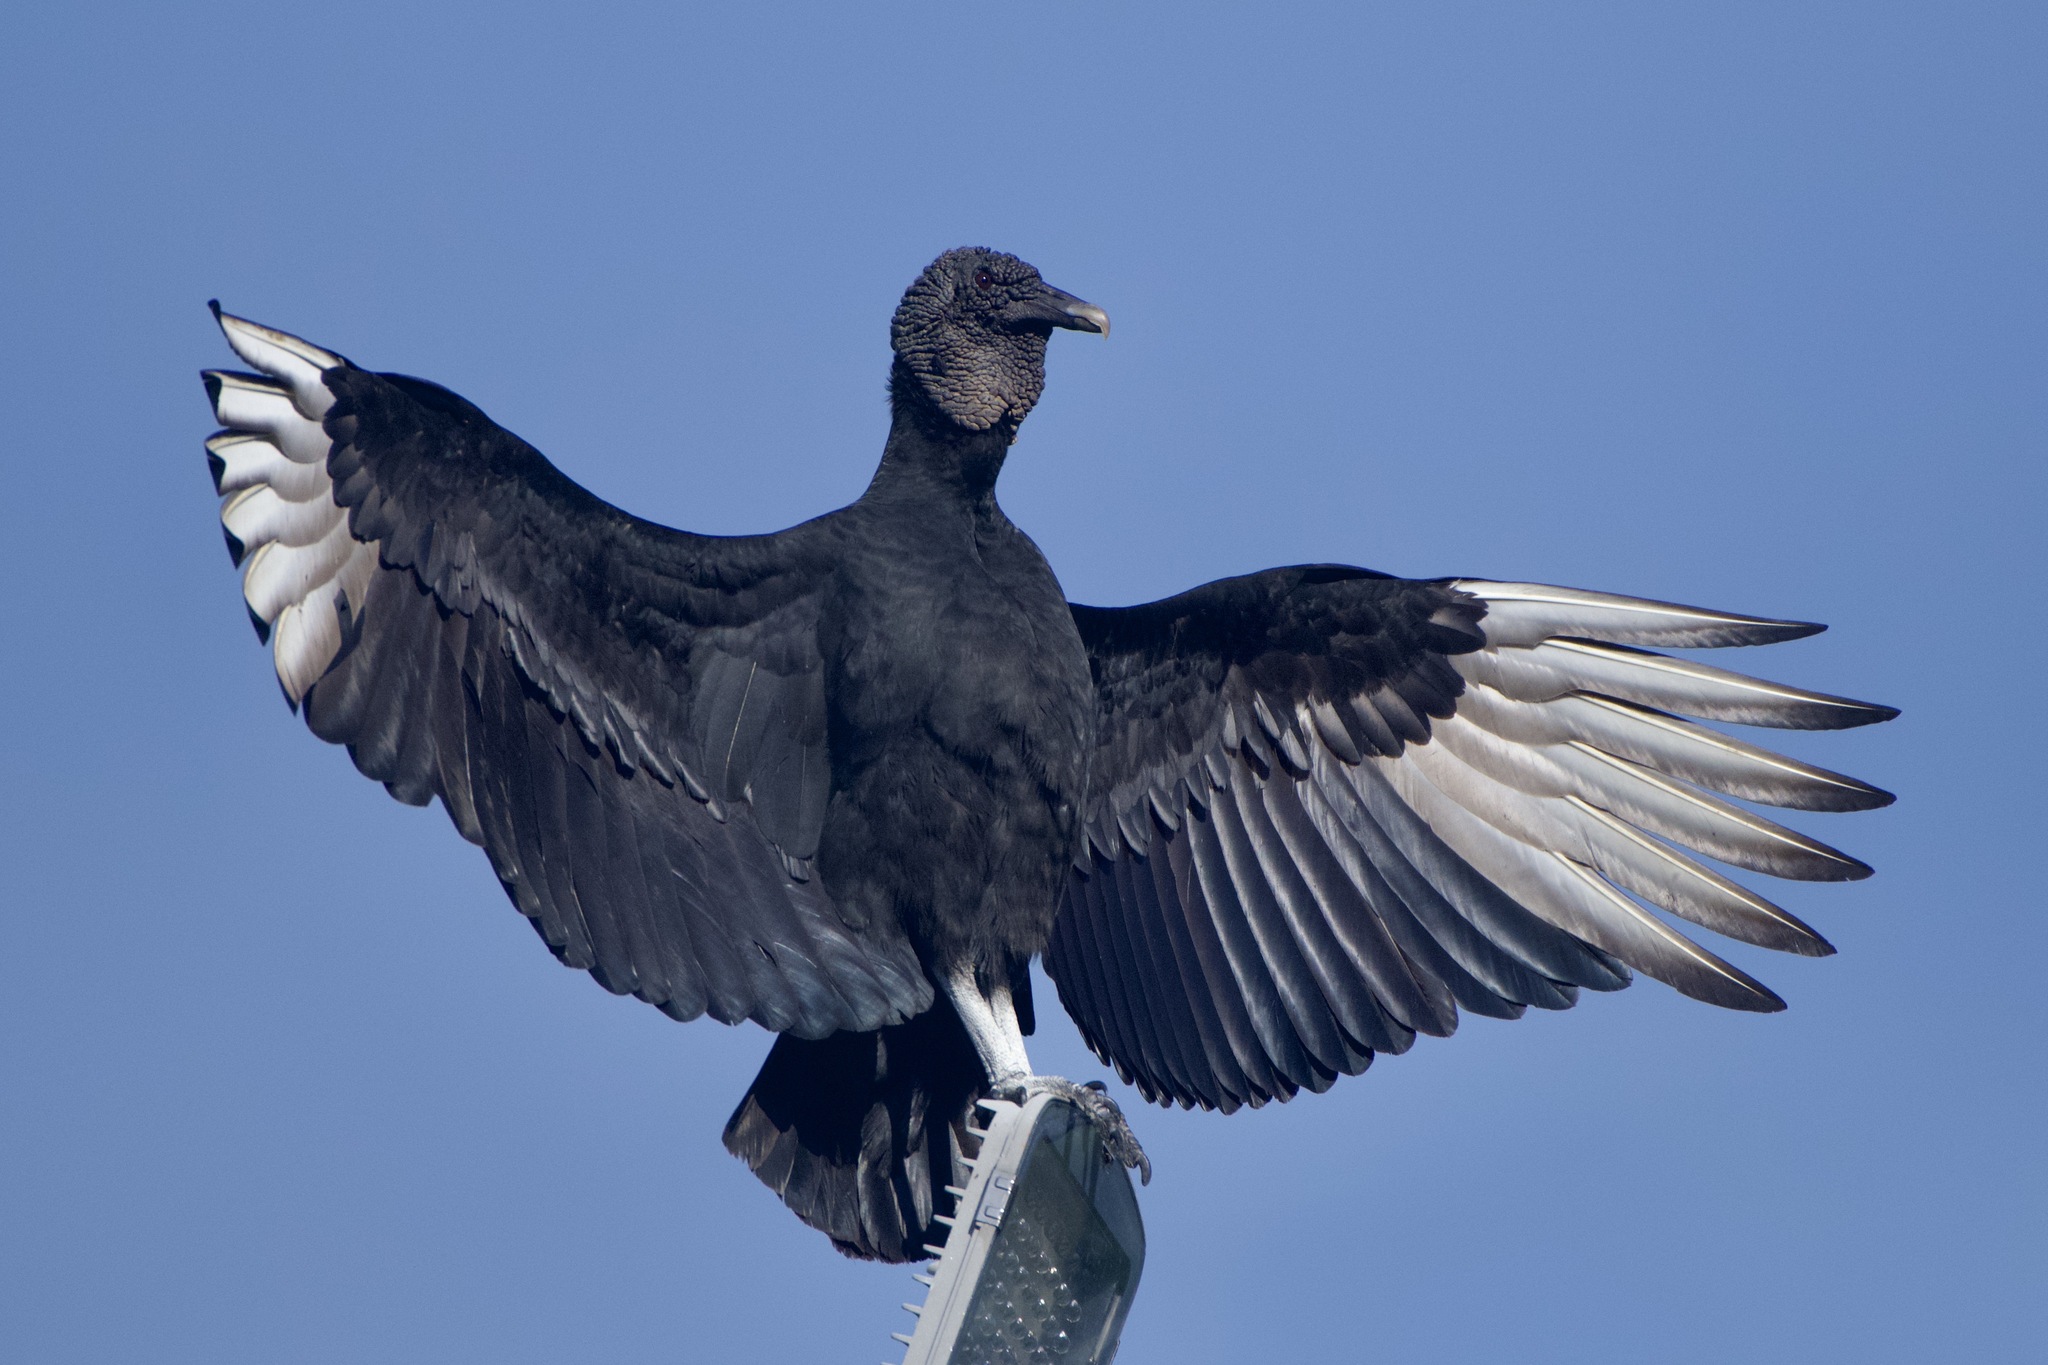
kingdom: Animalia
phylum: Chordata
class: Aves
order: Accipitriformes
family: Cathartidae
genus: Coragyps
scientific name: Coragyps atratus
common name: Black vulture
